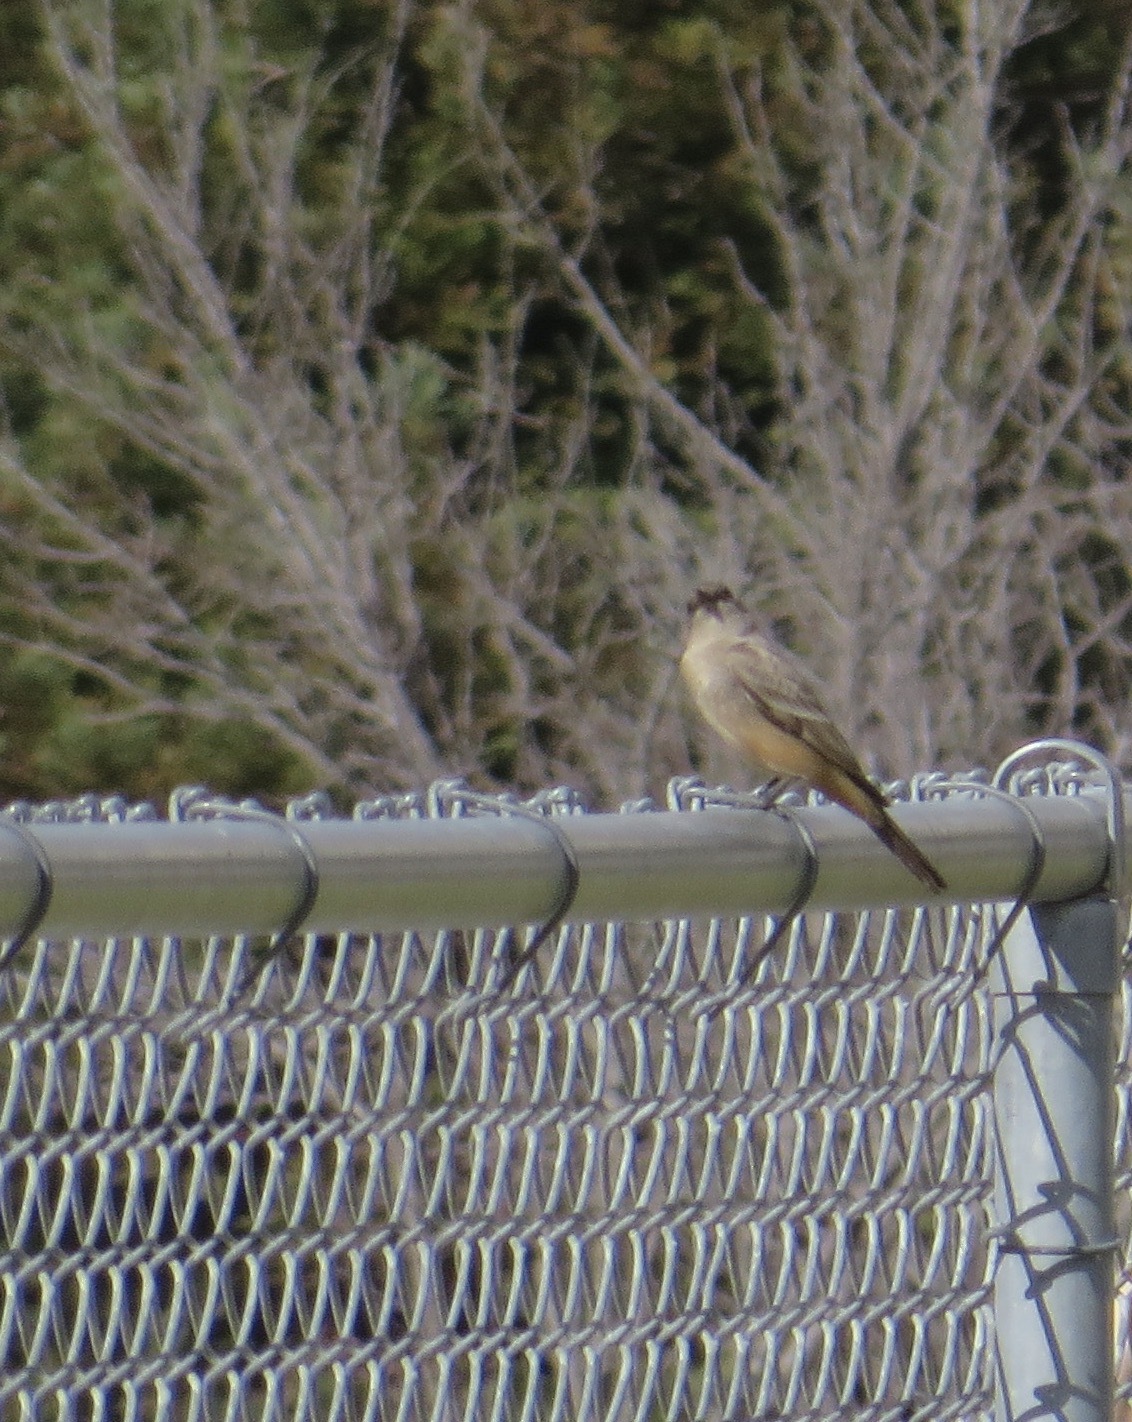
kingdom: Animalia
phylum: Chordata
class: Aves
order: Passeriformes
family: Tyrannidae
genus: Sayornis
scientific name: Sayornis saya
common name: Say's phoebe
